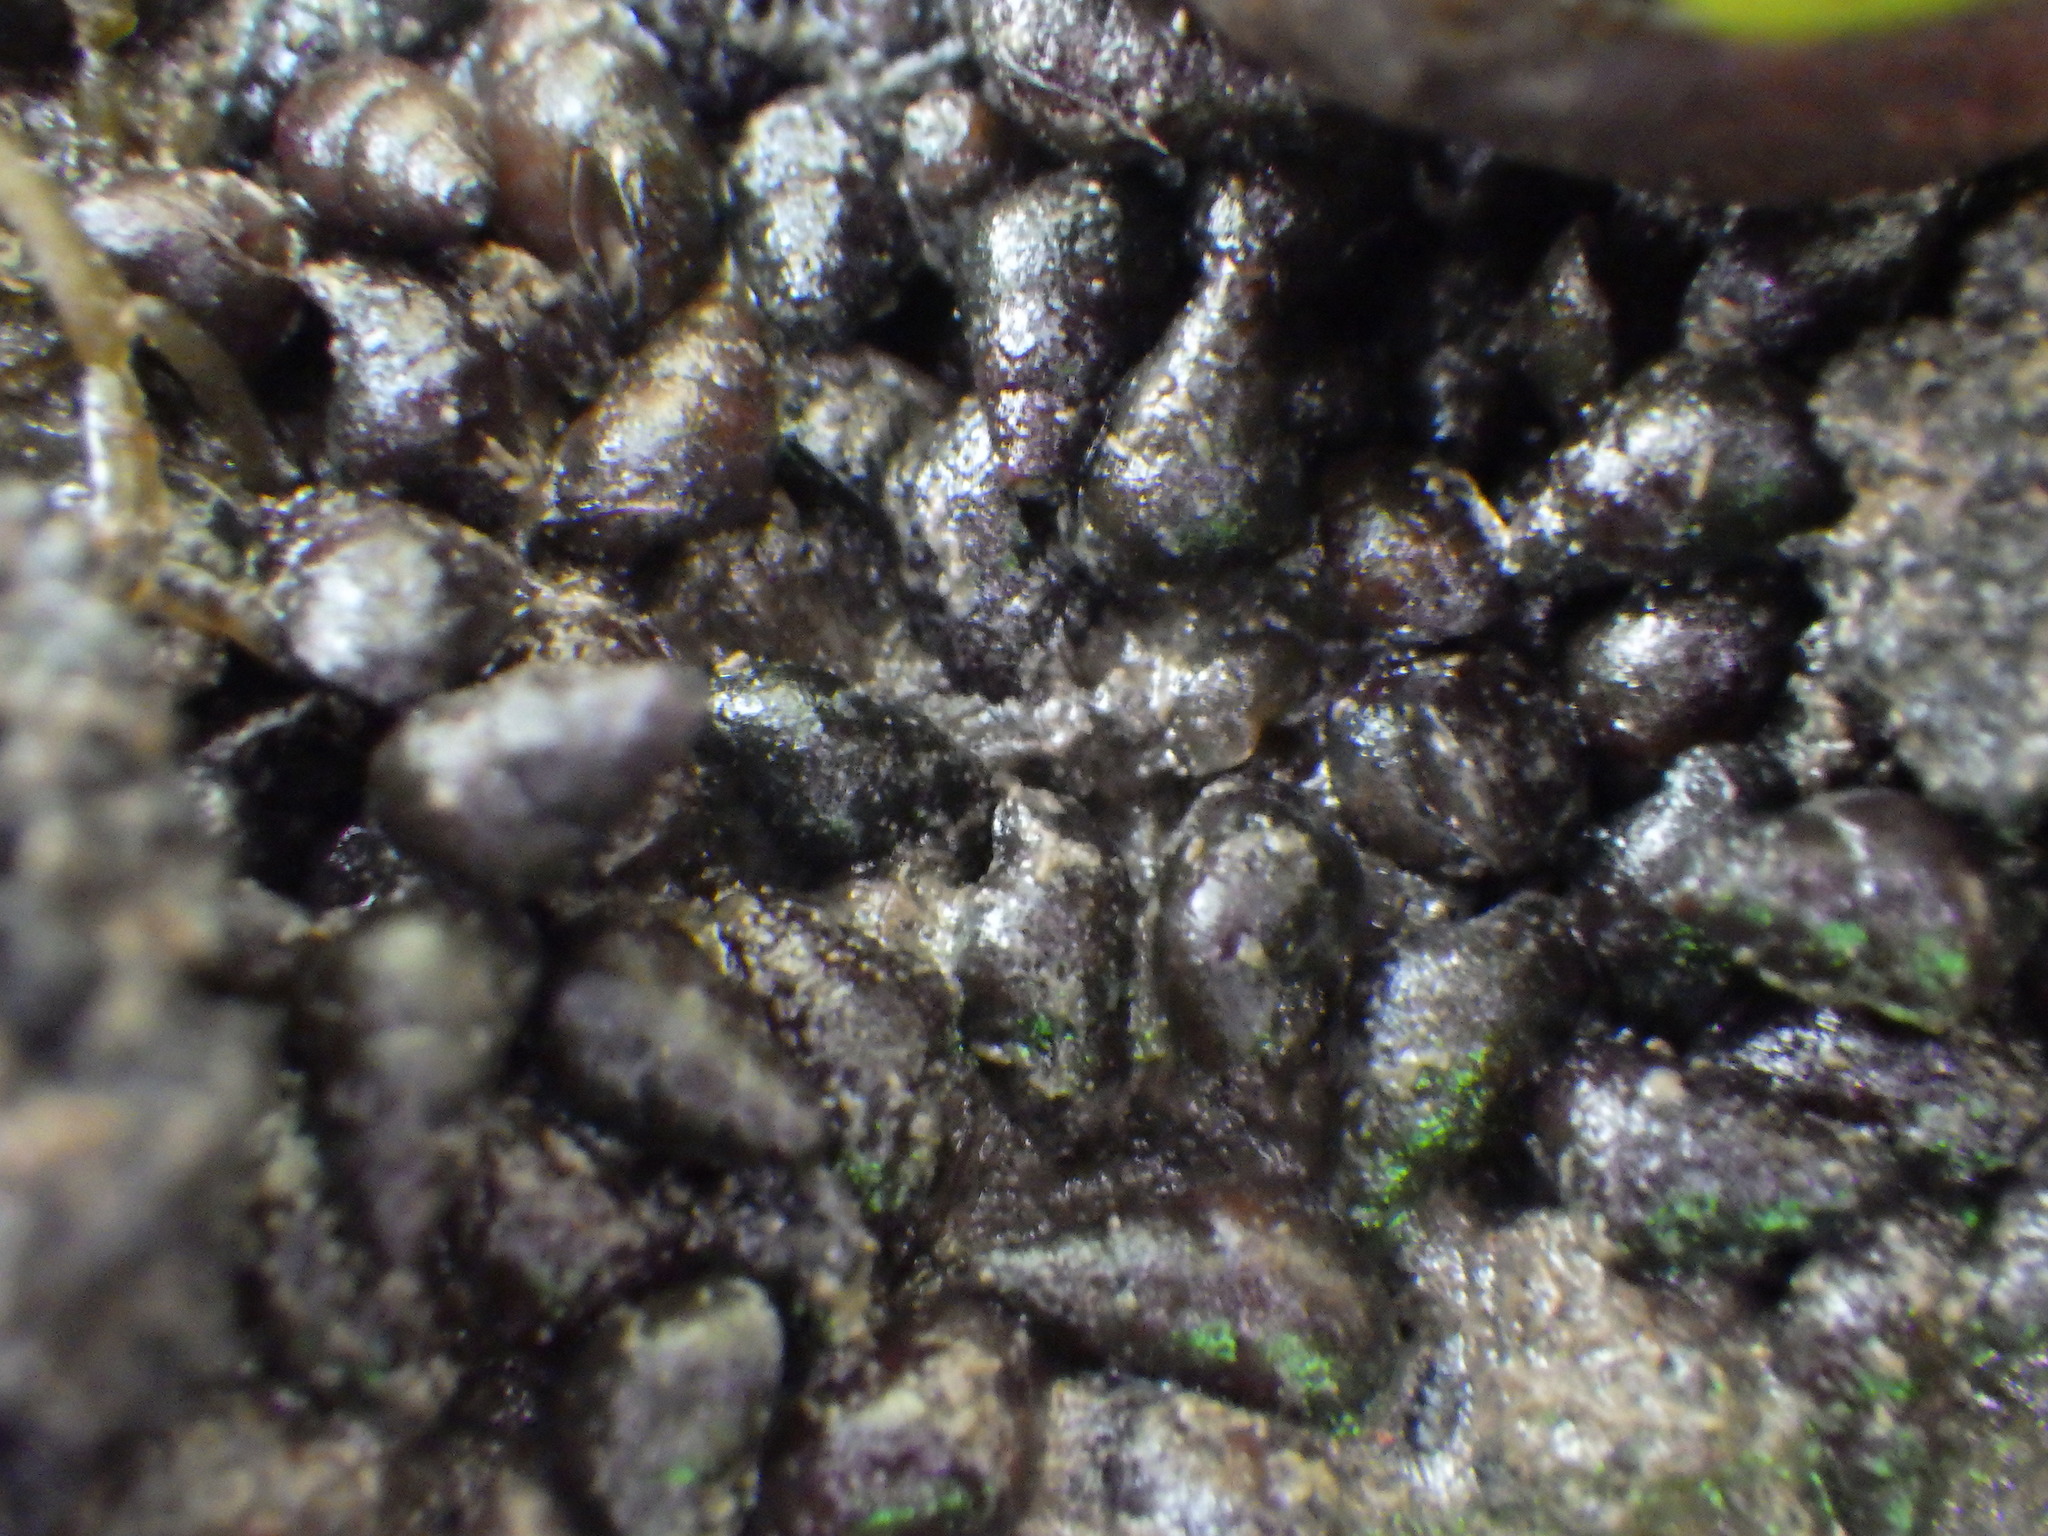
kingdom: Animalia
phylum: Mollusca
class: Gastropoda
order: Littorinimorpha
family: Tateidae
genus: Potamopyrgus
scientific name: Potamopyrgus estuarinus
